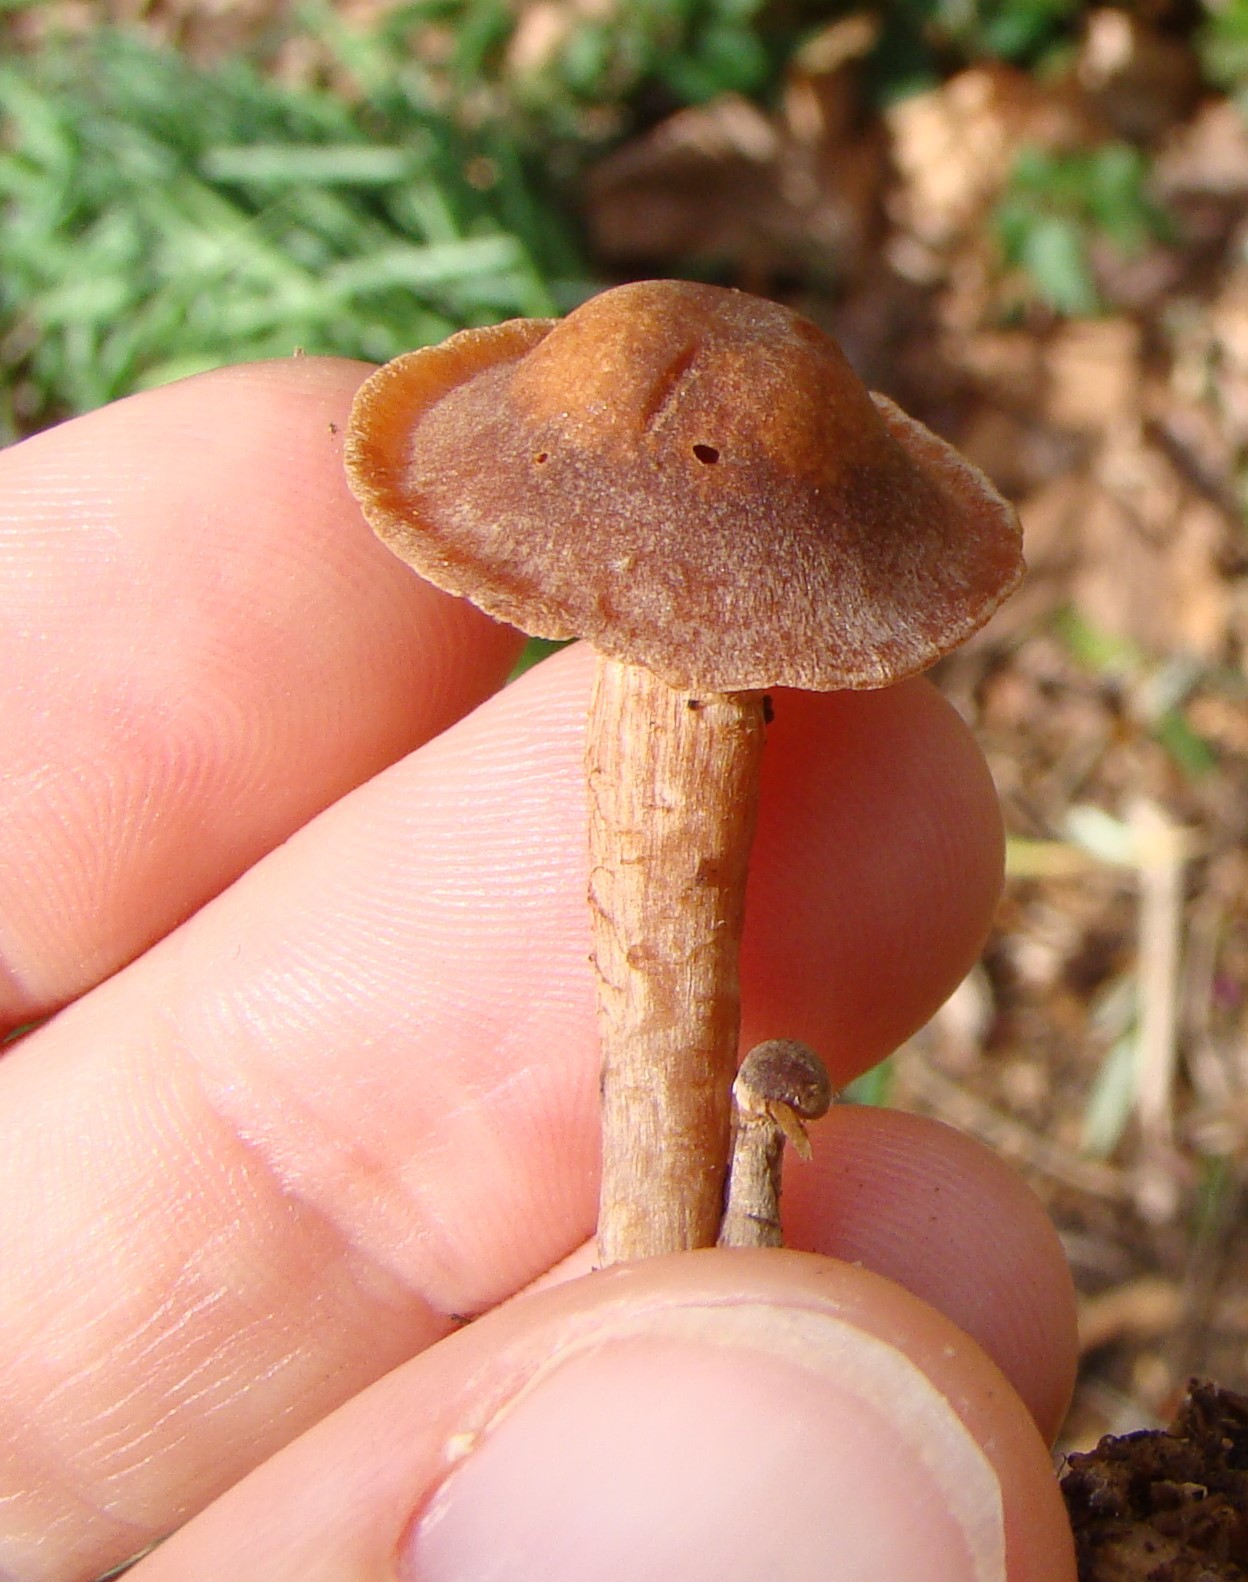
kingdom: Fungi
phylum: Basidiomycota
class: Agaricomycetes
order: Agaricales
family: Tubariaceae
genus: Tubaria
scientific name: Tubaria furfuracea
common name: Scurfy twiglet
